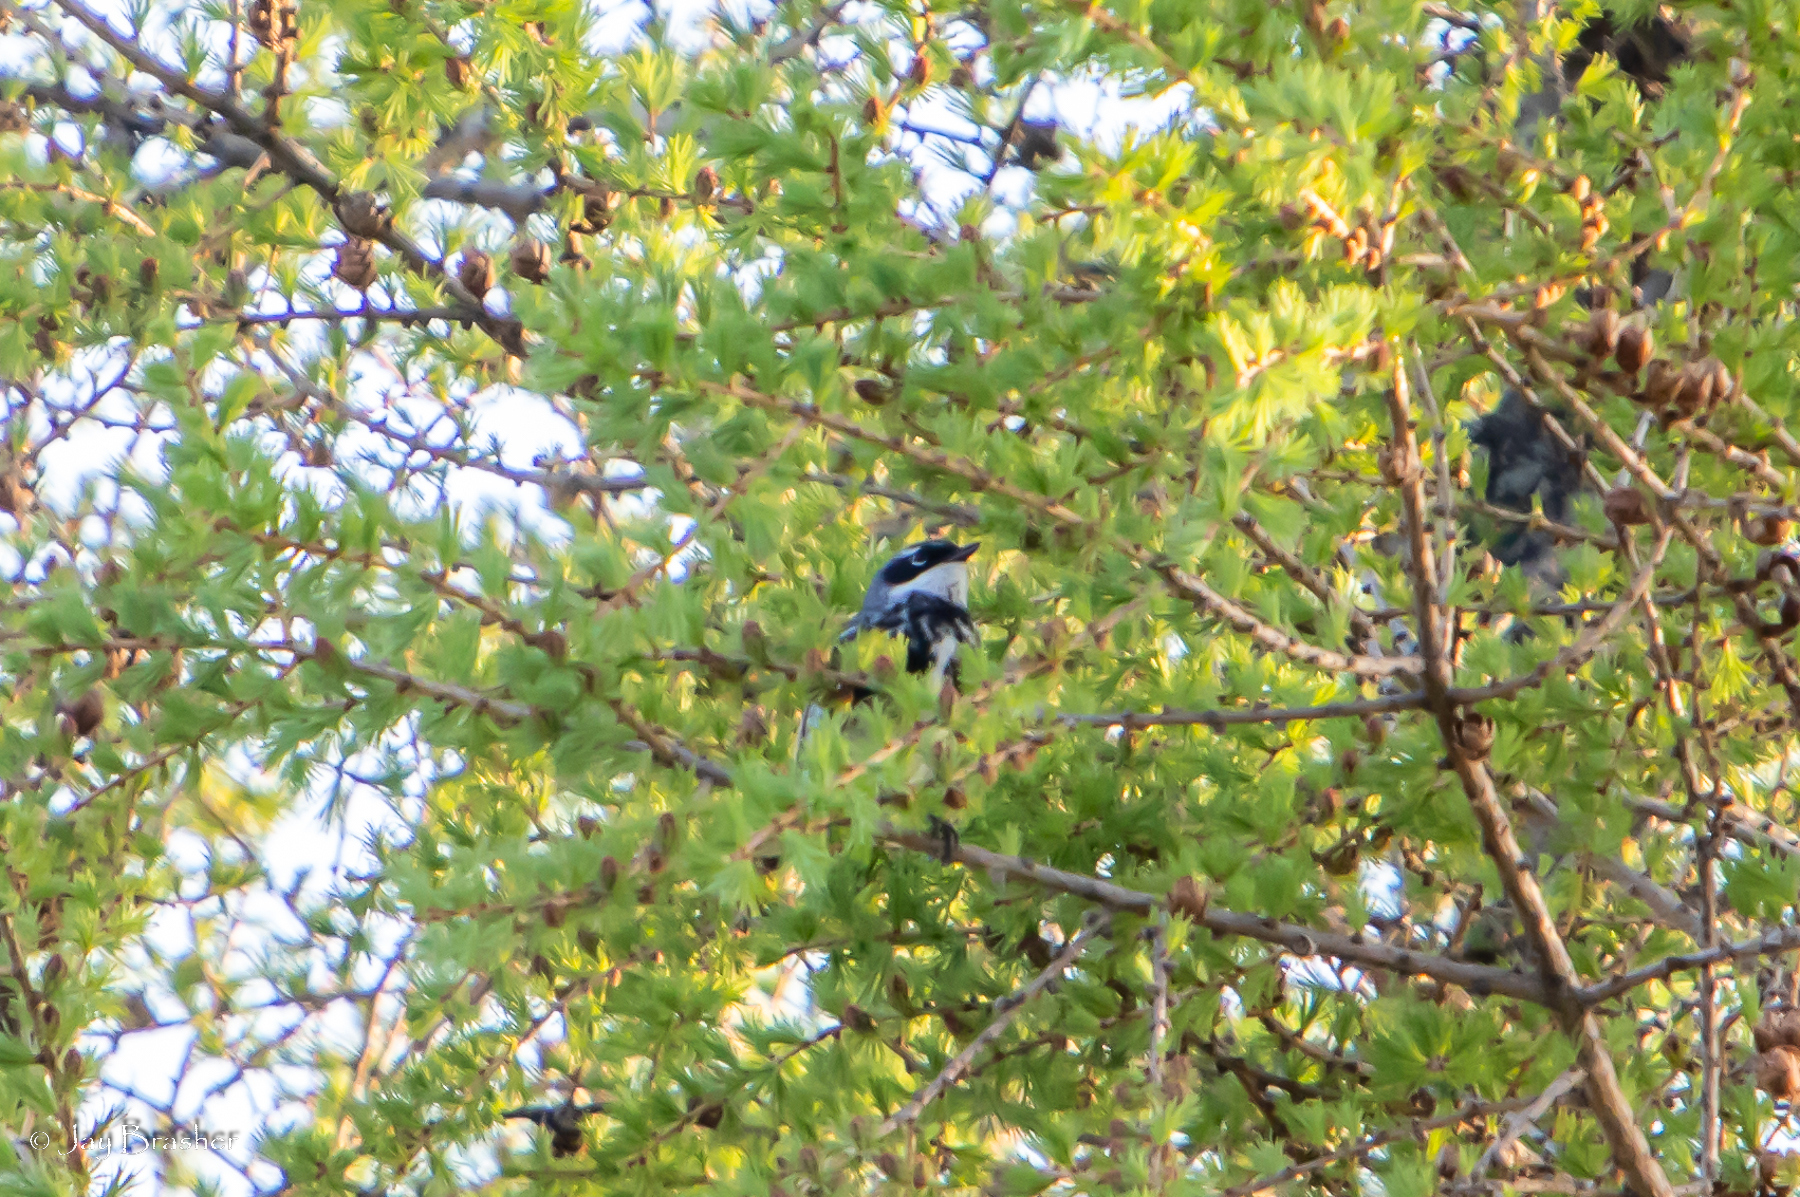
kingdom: Animalia
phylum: Chordata
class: Aves
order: Passeriformes
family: Parulidae
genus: Setophaga
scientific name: Setophaga coronata
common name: Myrtle warbler
